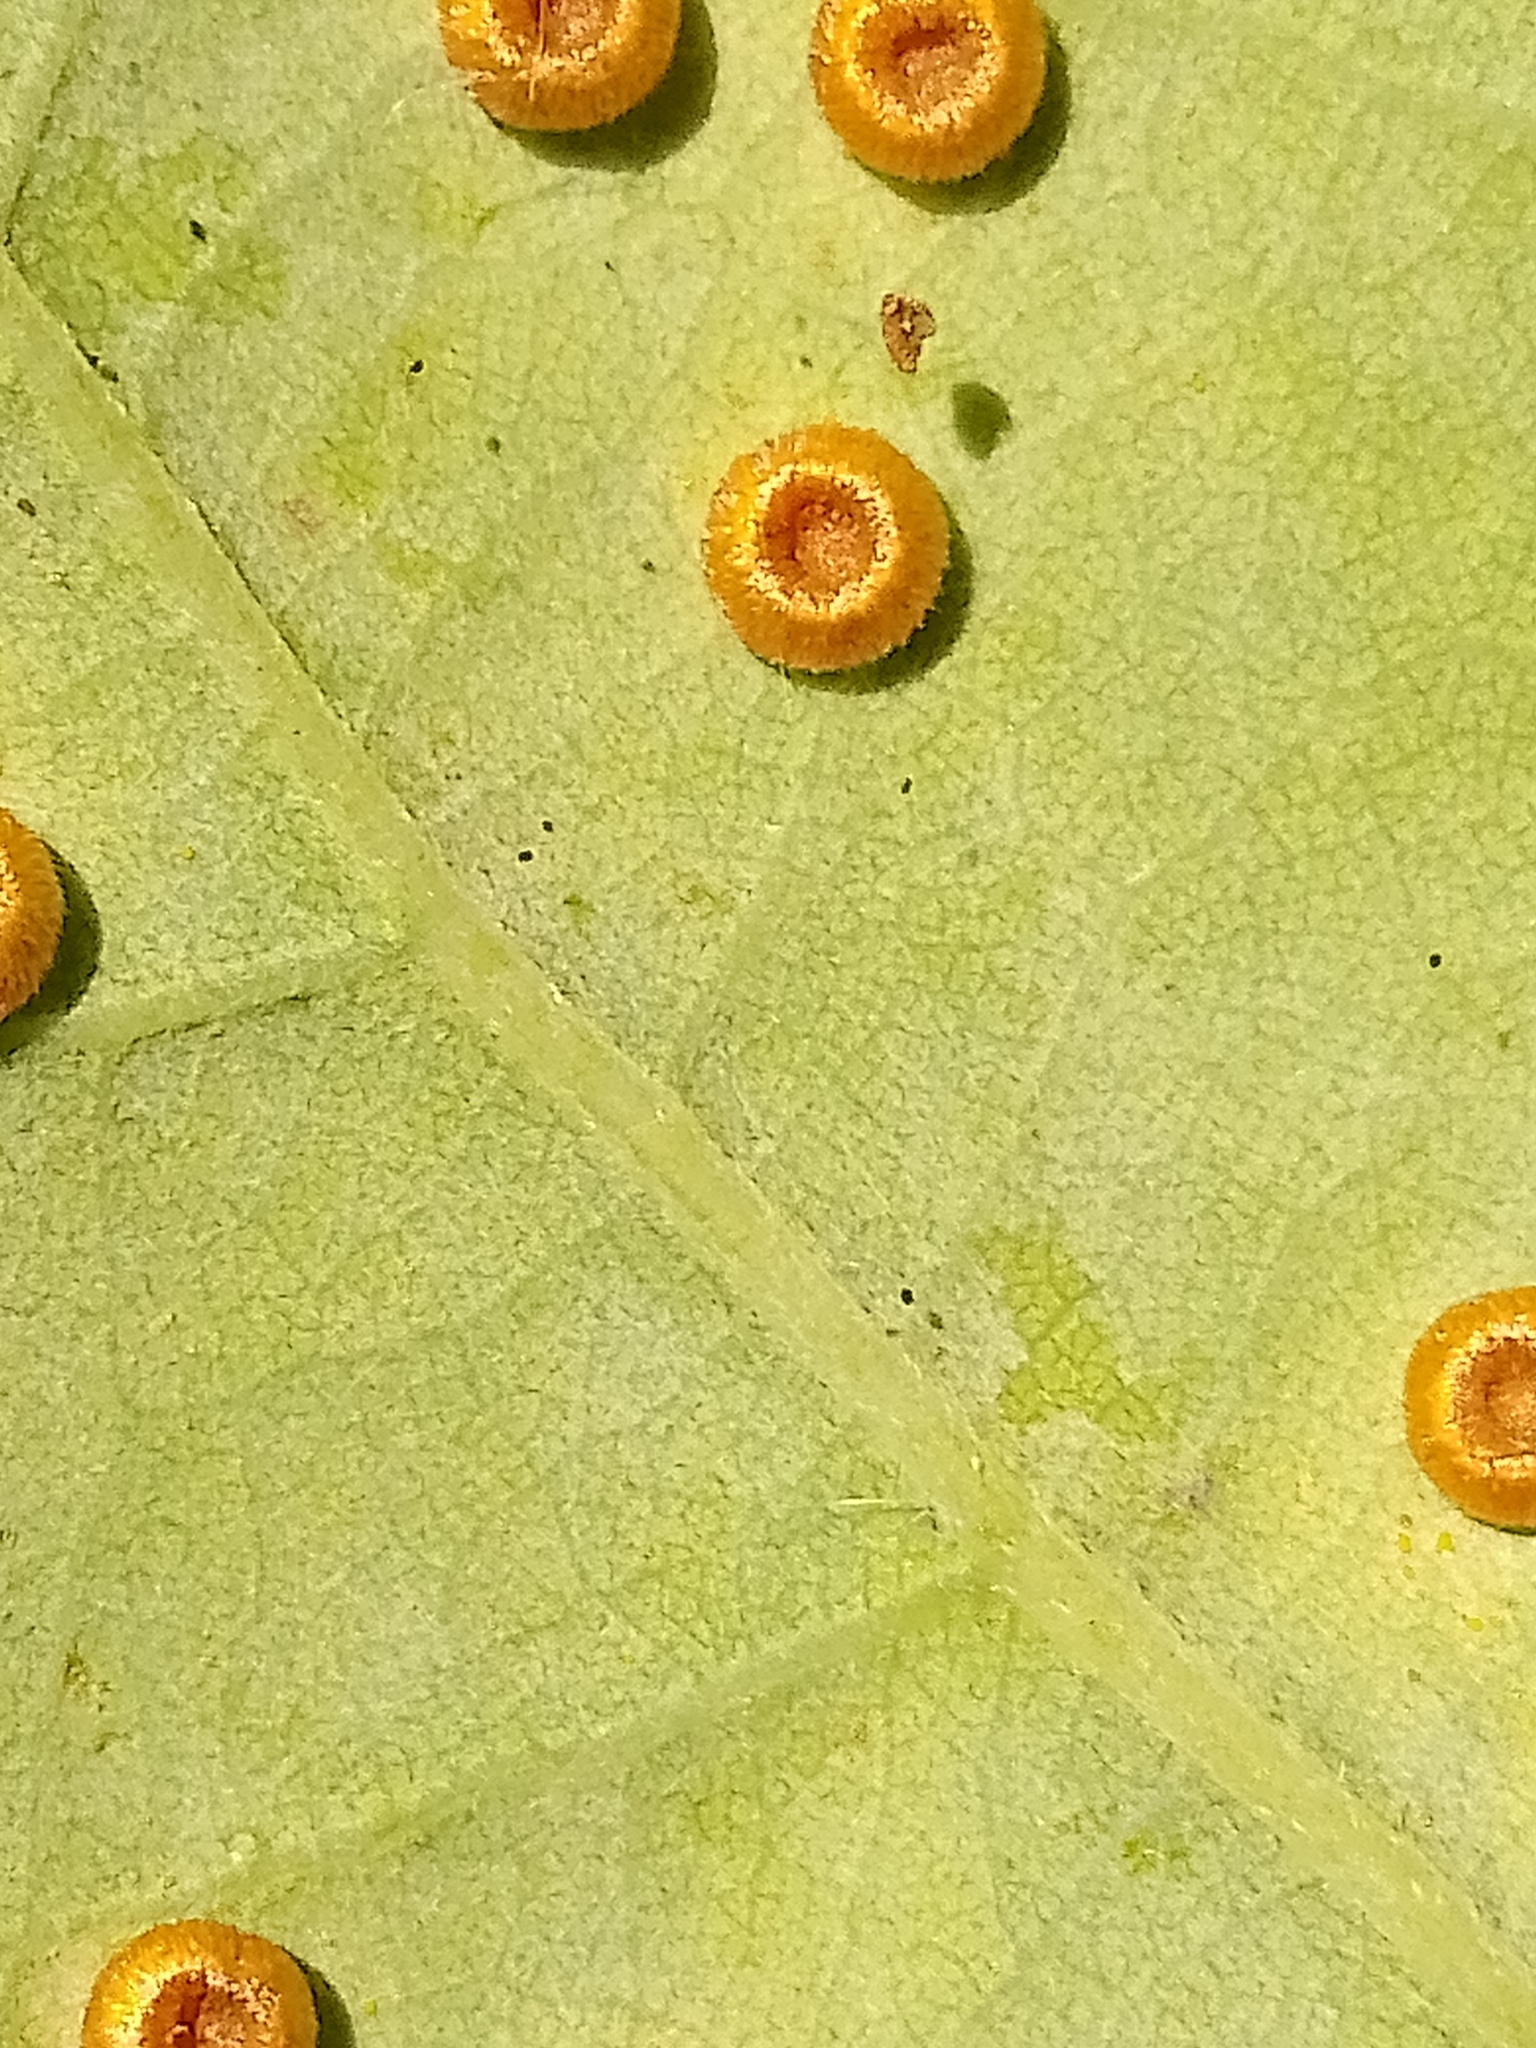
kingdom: Animalia
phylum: Arthropoda
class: Insecta
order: Hymenoptera
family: Cynipidae
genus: Neuroterus
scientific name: Neuroterus numismalis
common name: Silk-button spangle gall
